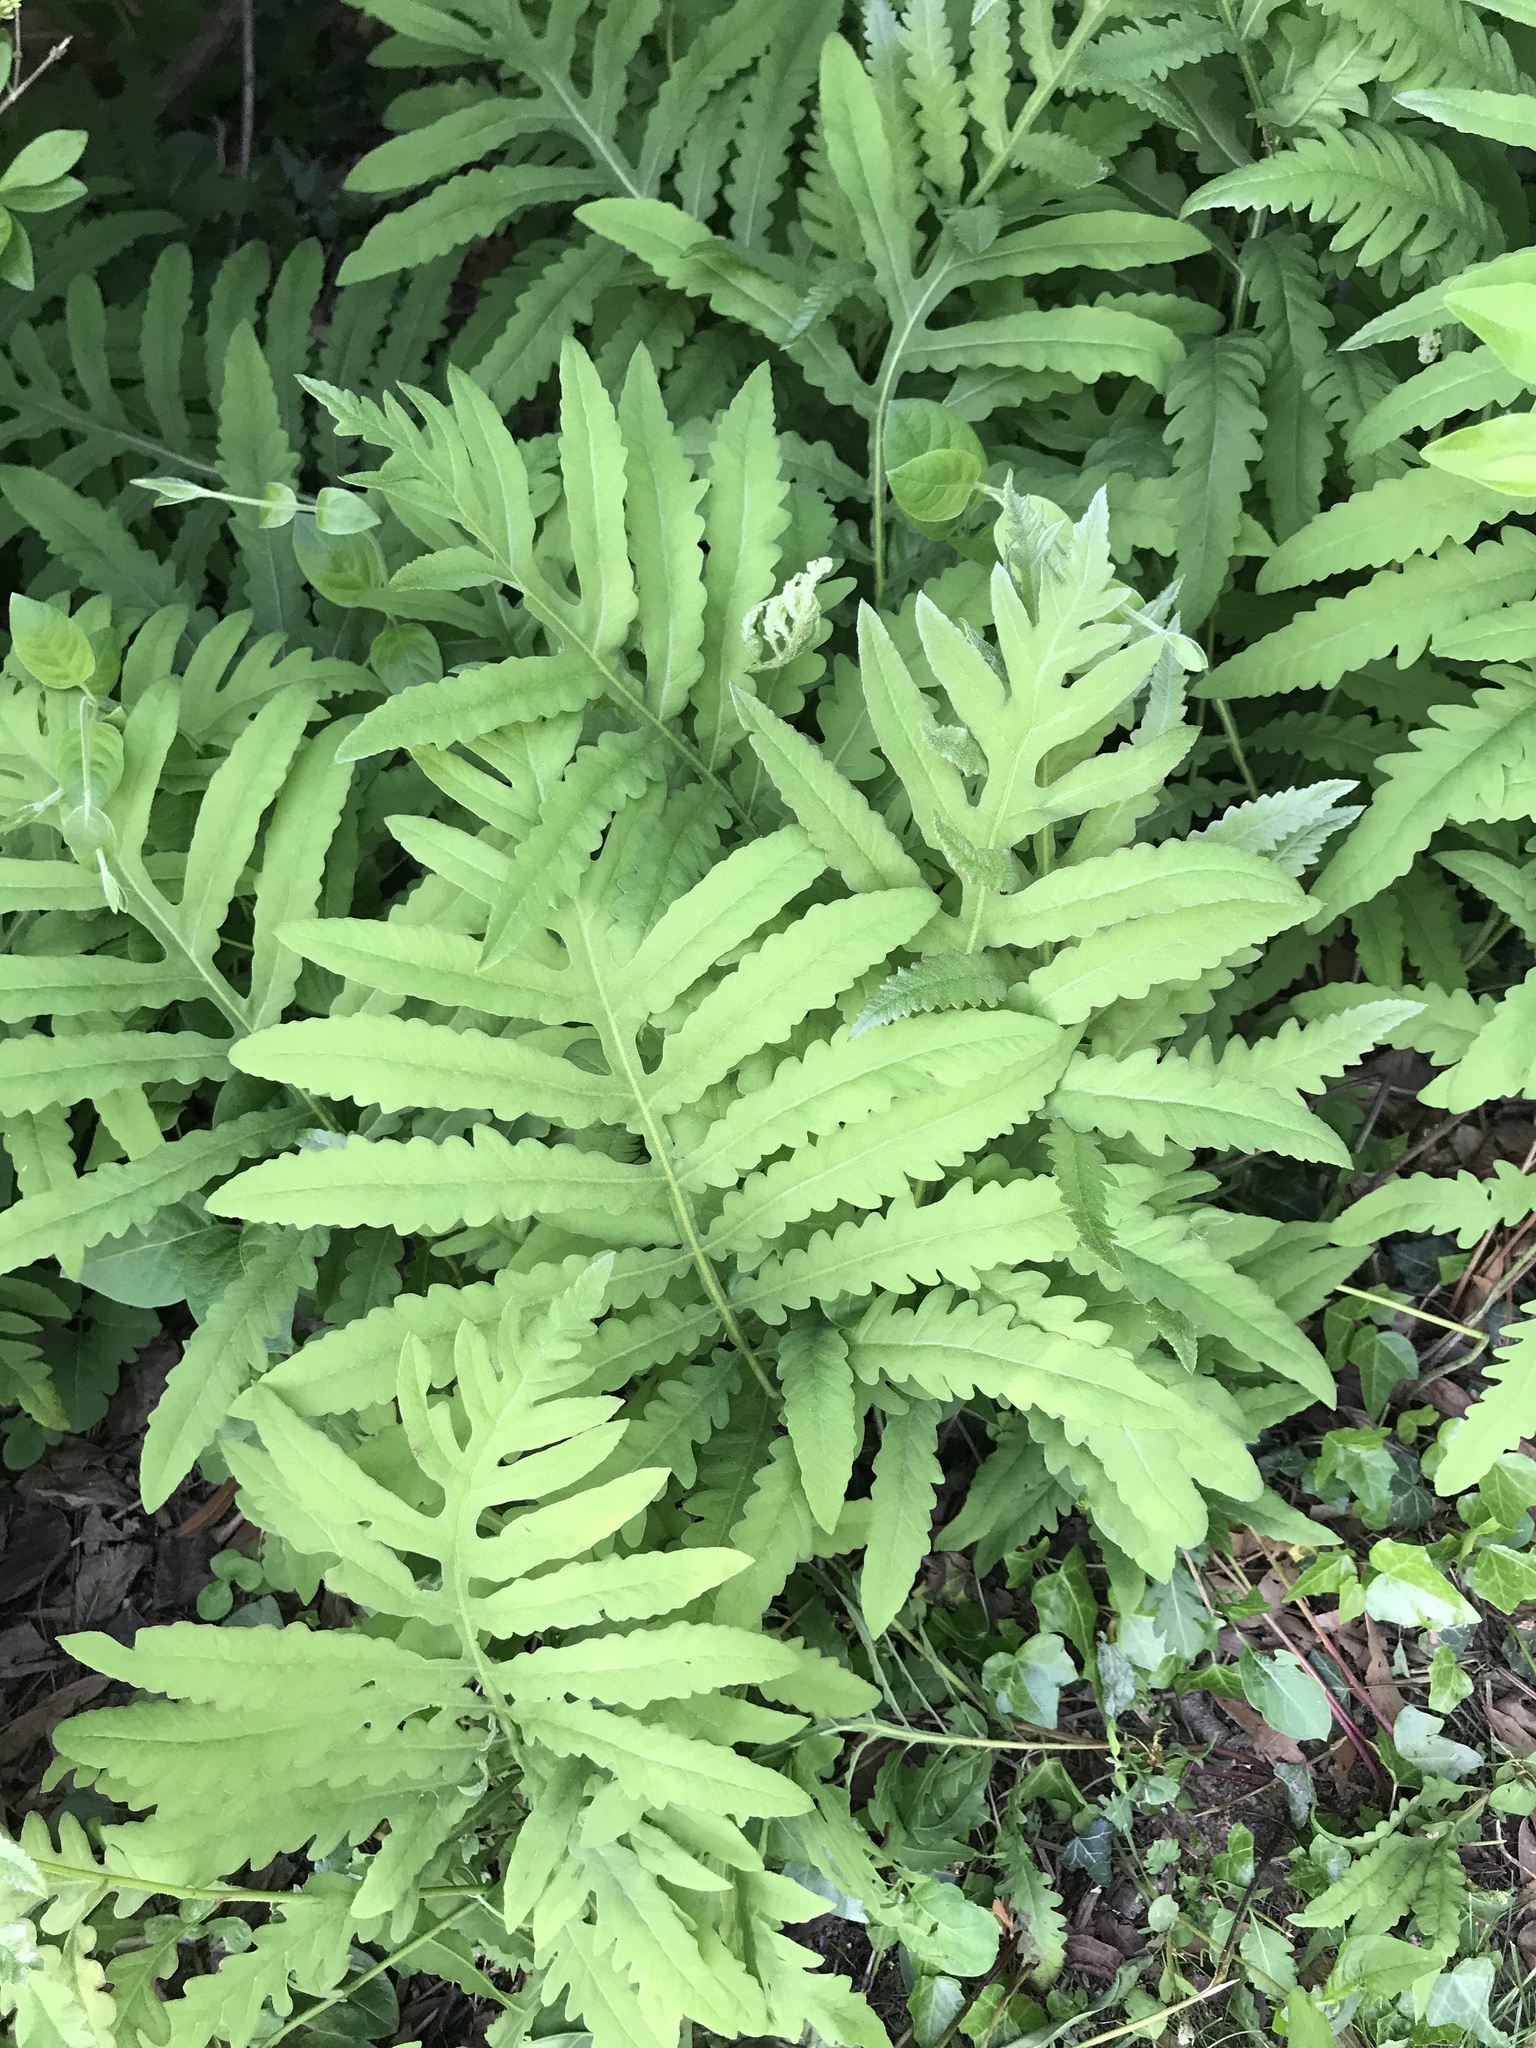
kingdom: Plantae
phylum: Tracheophyta
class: Polypodiopsida
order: Polypodiales
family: Onocleaceae
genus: Onoclea
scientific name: Onoclea sensibilis
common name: Sensitive fern
